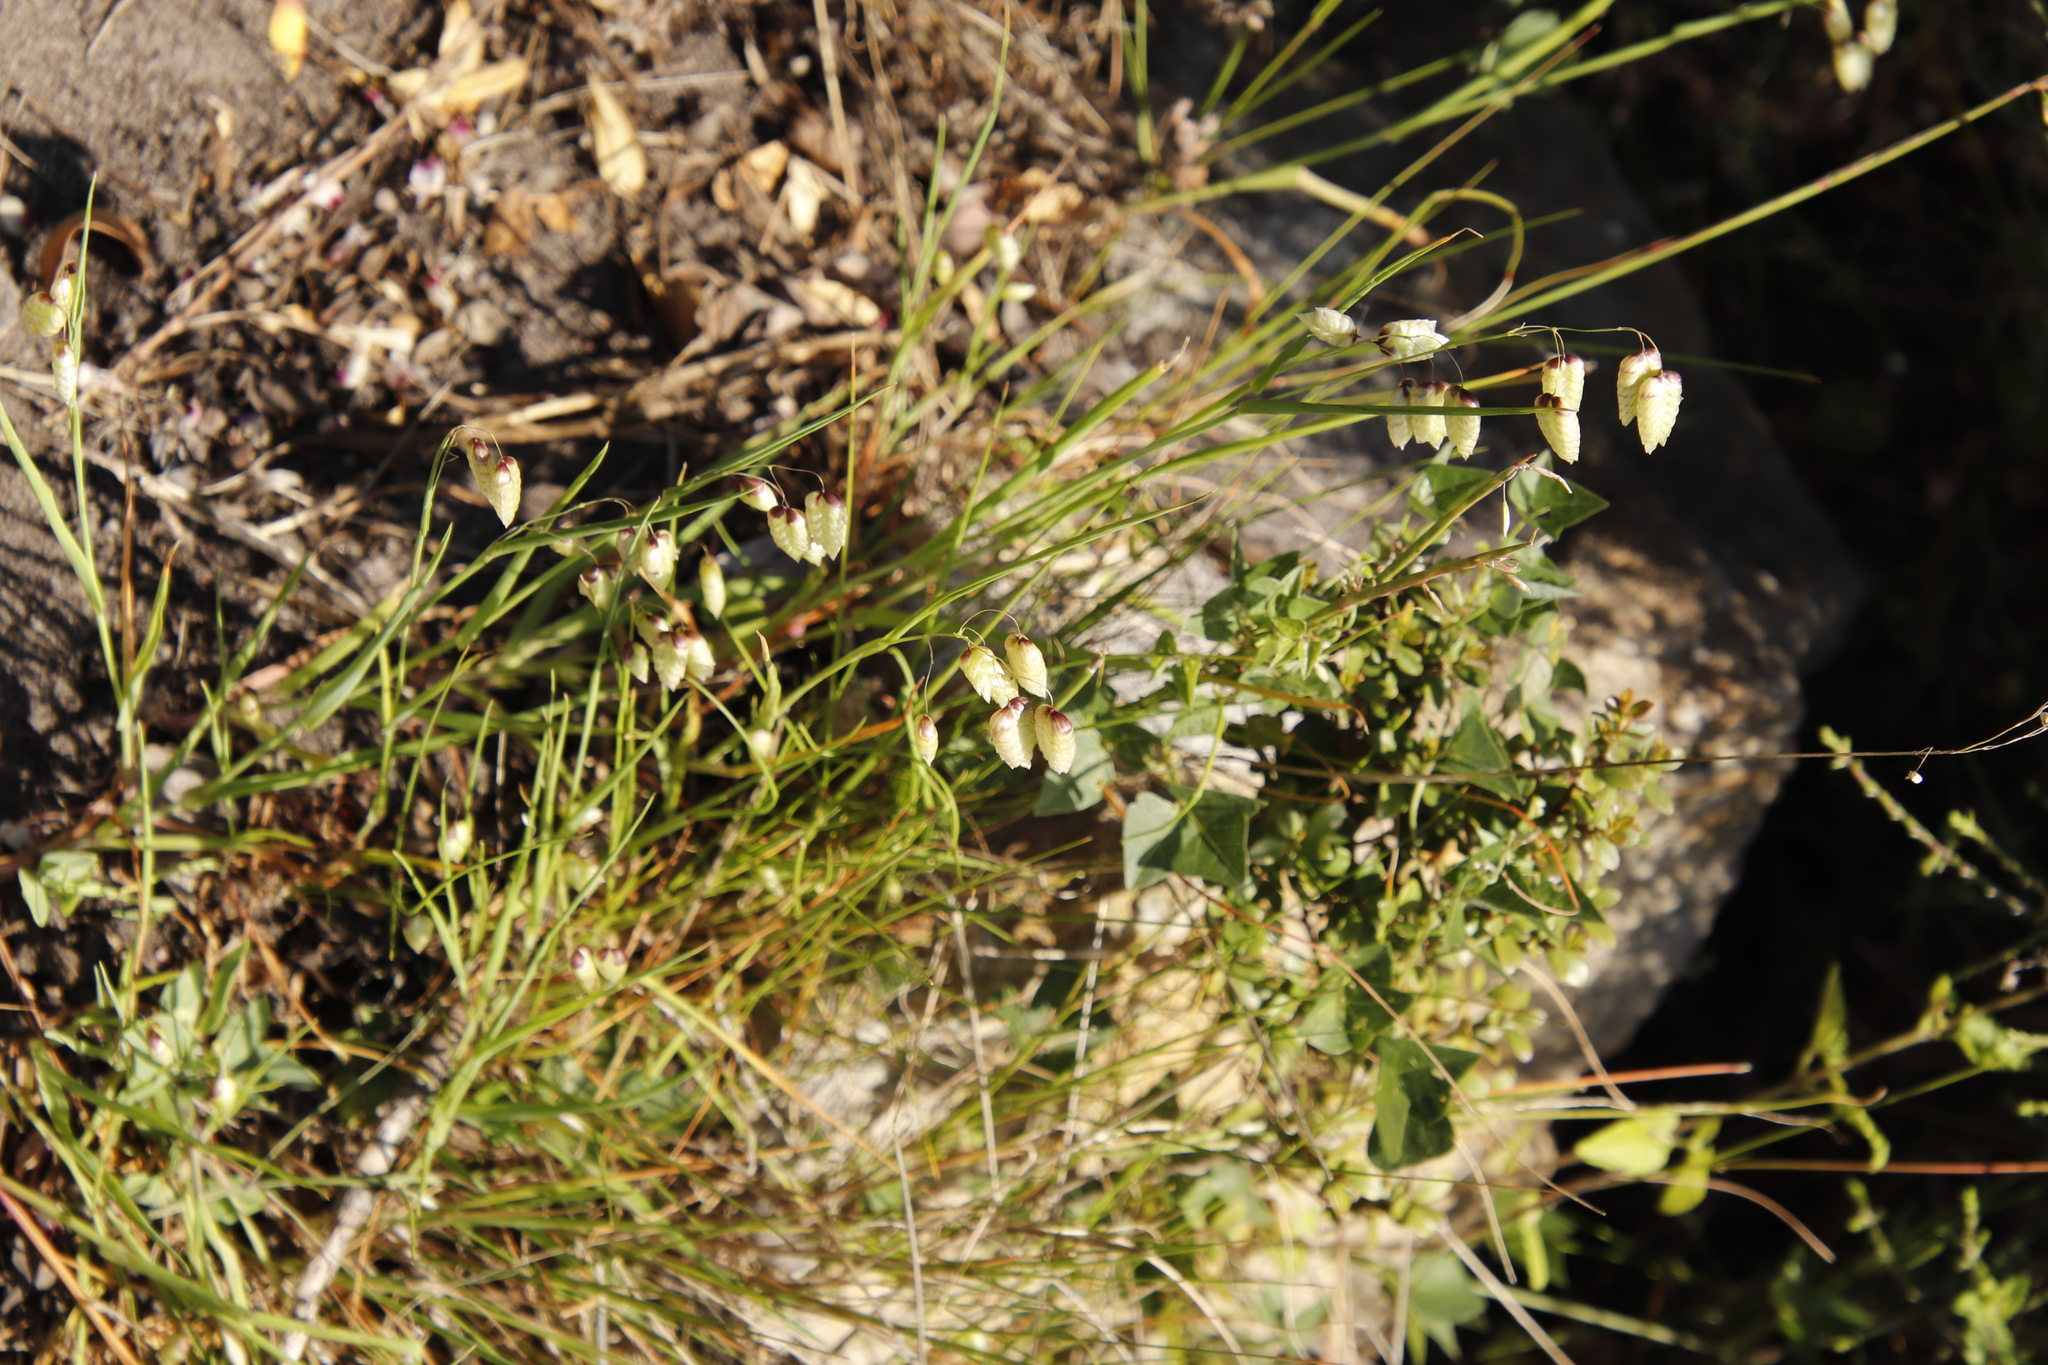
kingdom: Plantae
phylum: Tracheophyta
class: Liliopsida
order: Poales
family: Poaceae
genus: Briza
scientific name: Briza maxima
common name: Big quakinggrass
